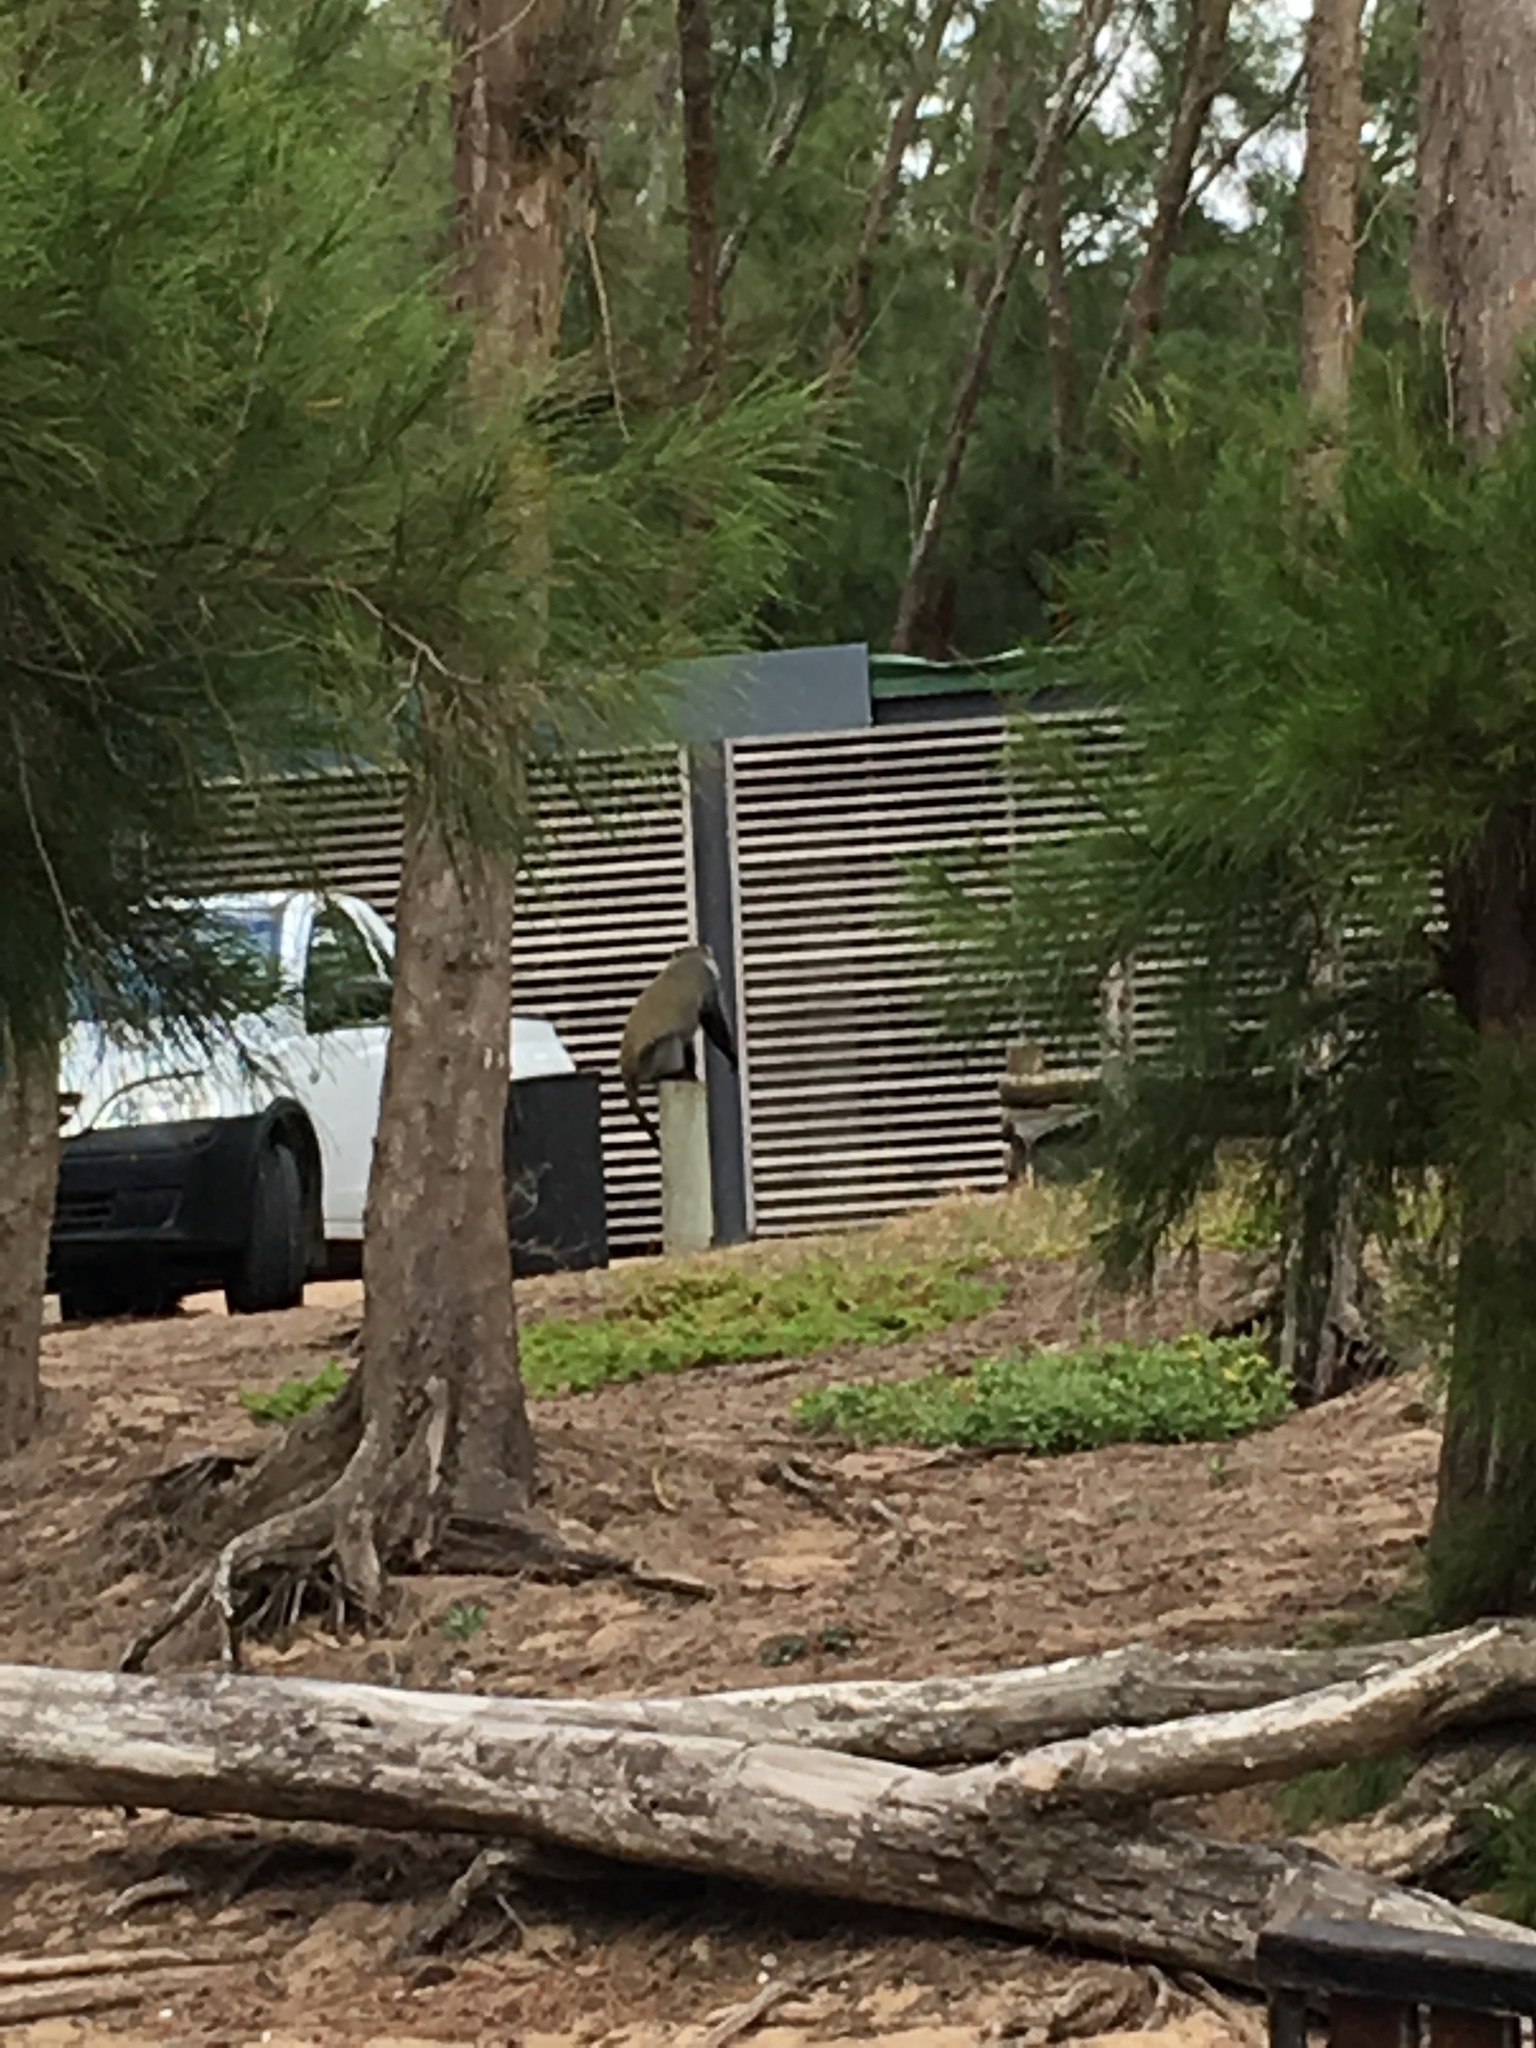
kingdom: Animalia
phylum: Chordata
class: Mammalia
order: Primates
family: Cercopithecidae
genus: Cercopithecus
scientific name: Cercopithecus mitis
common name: Blue monkey
